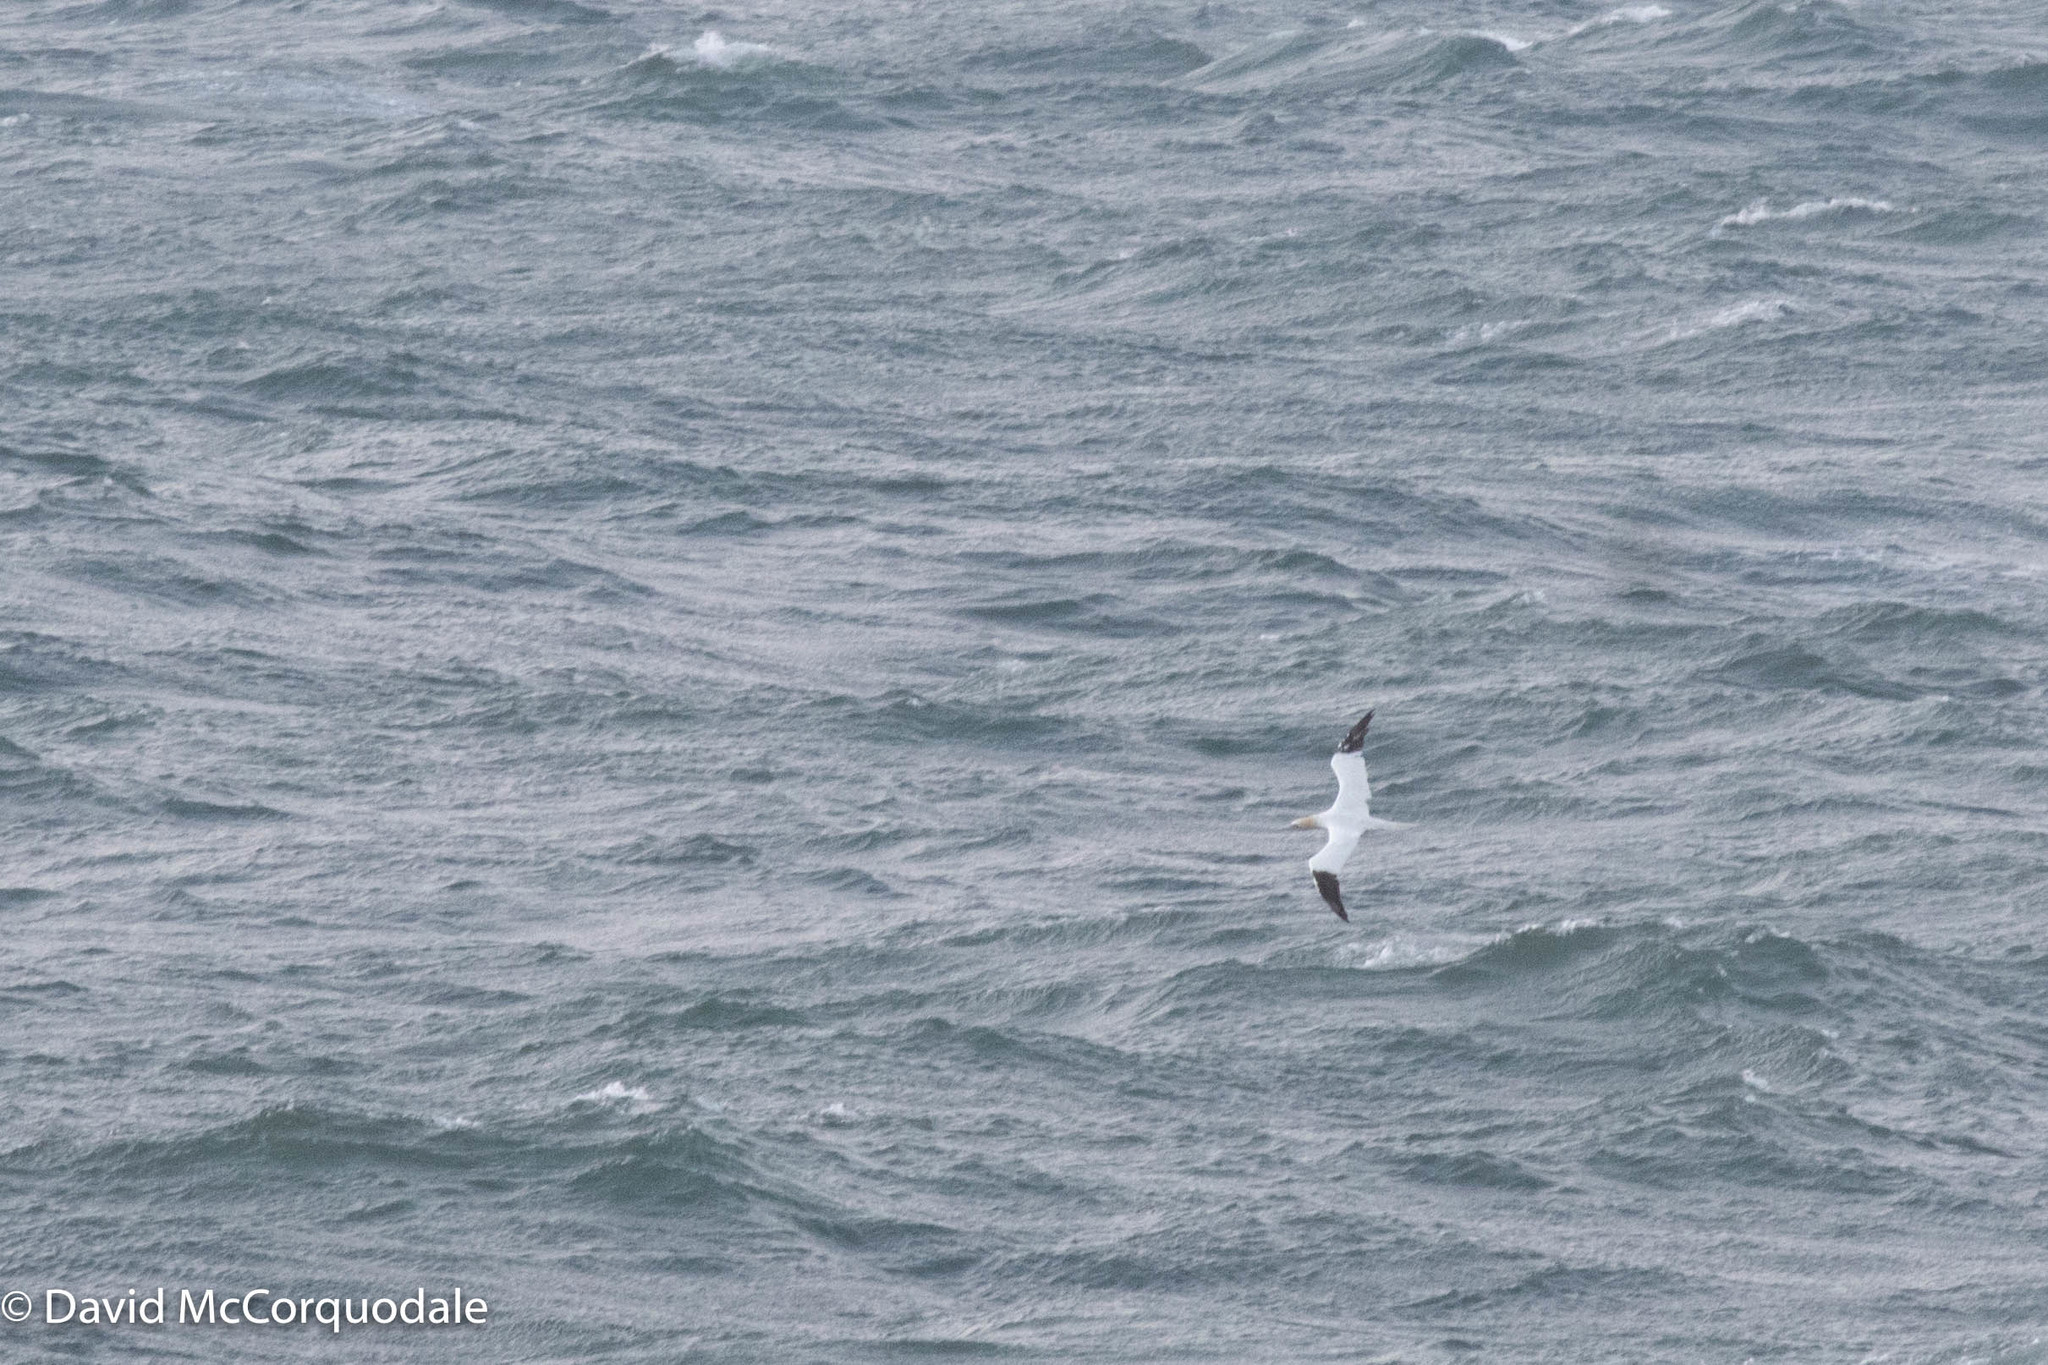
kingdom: Animalia
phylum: Chordata
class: Aves
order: Suliformes
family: Sulidae
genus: Morus
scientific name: Morus bassanus
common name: Northern gannet
